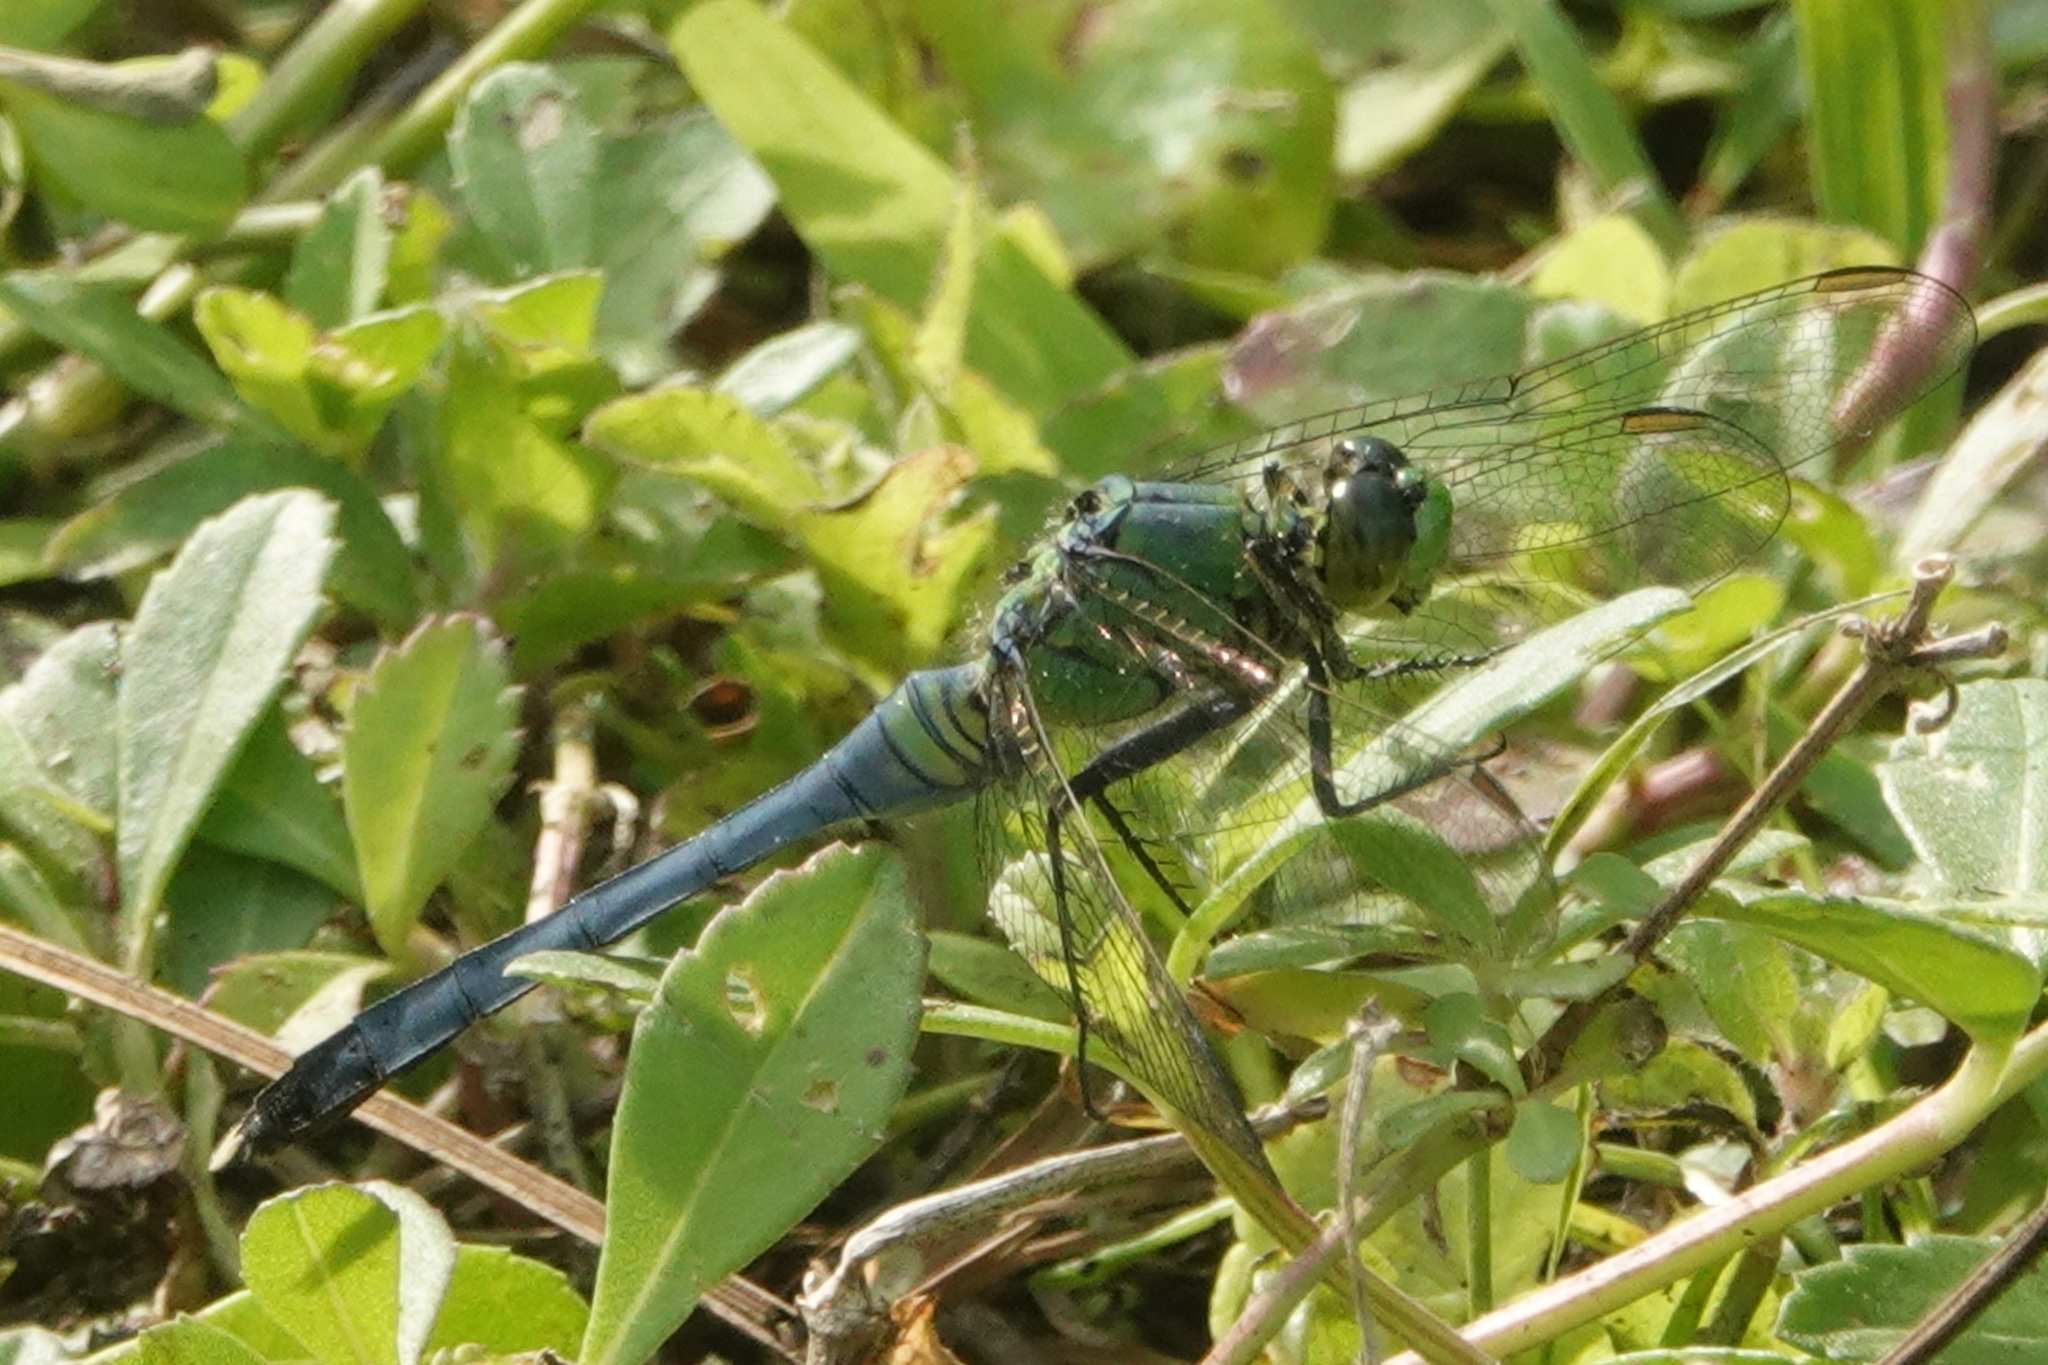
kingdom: Animalia
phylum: Arthropoda
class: Insecta
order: Odonata
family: Libellulidae
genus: Erythemis
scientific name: Erythemis simplicicollis
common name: Eastern pondhawk
